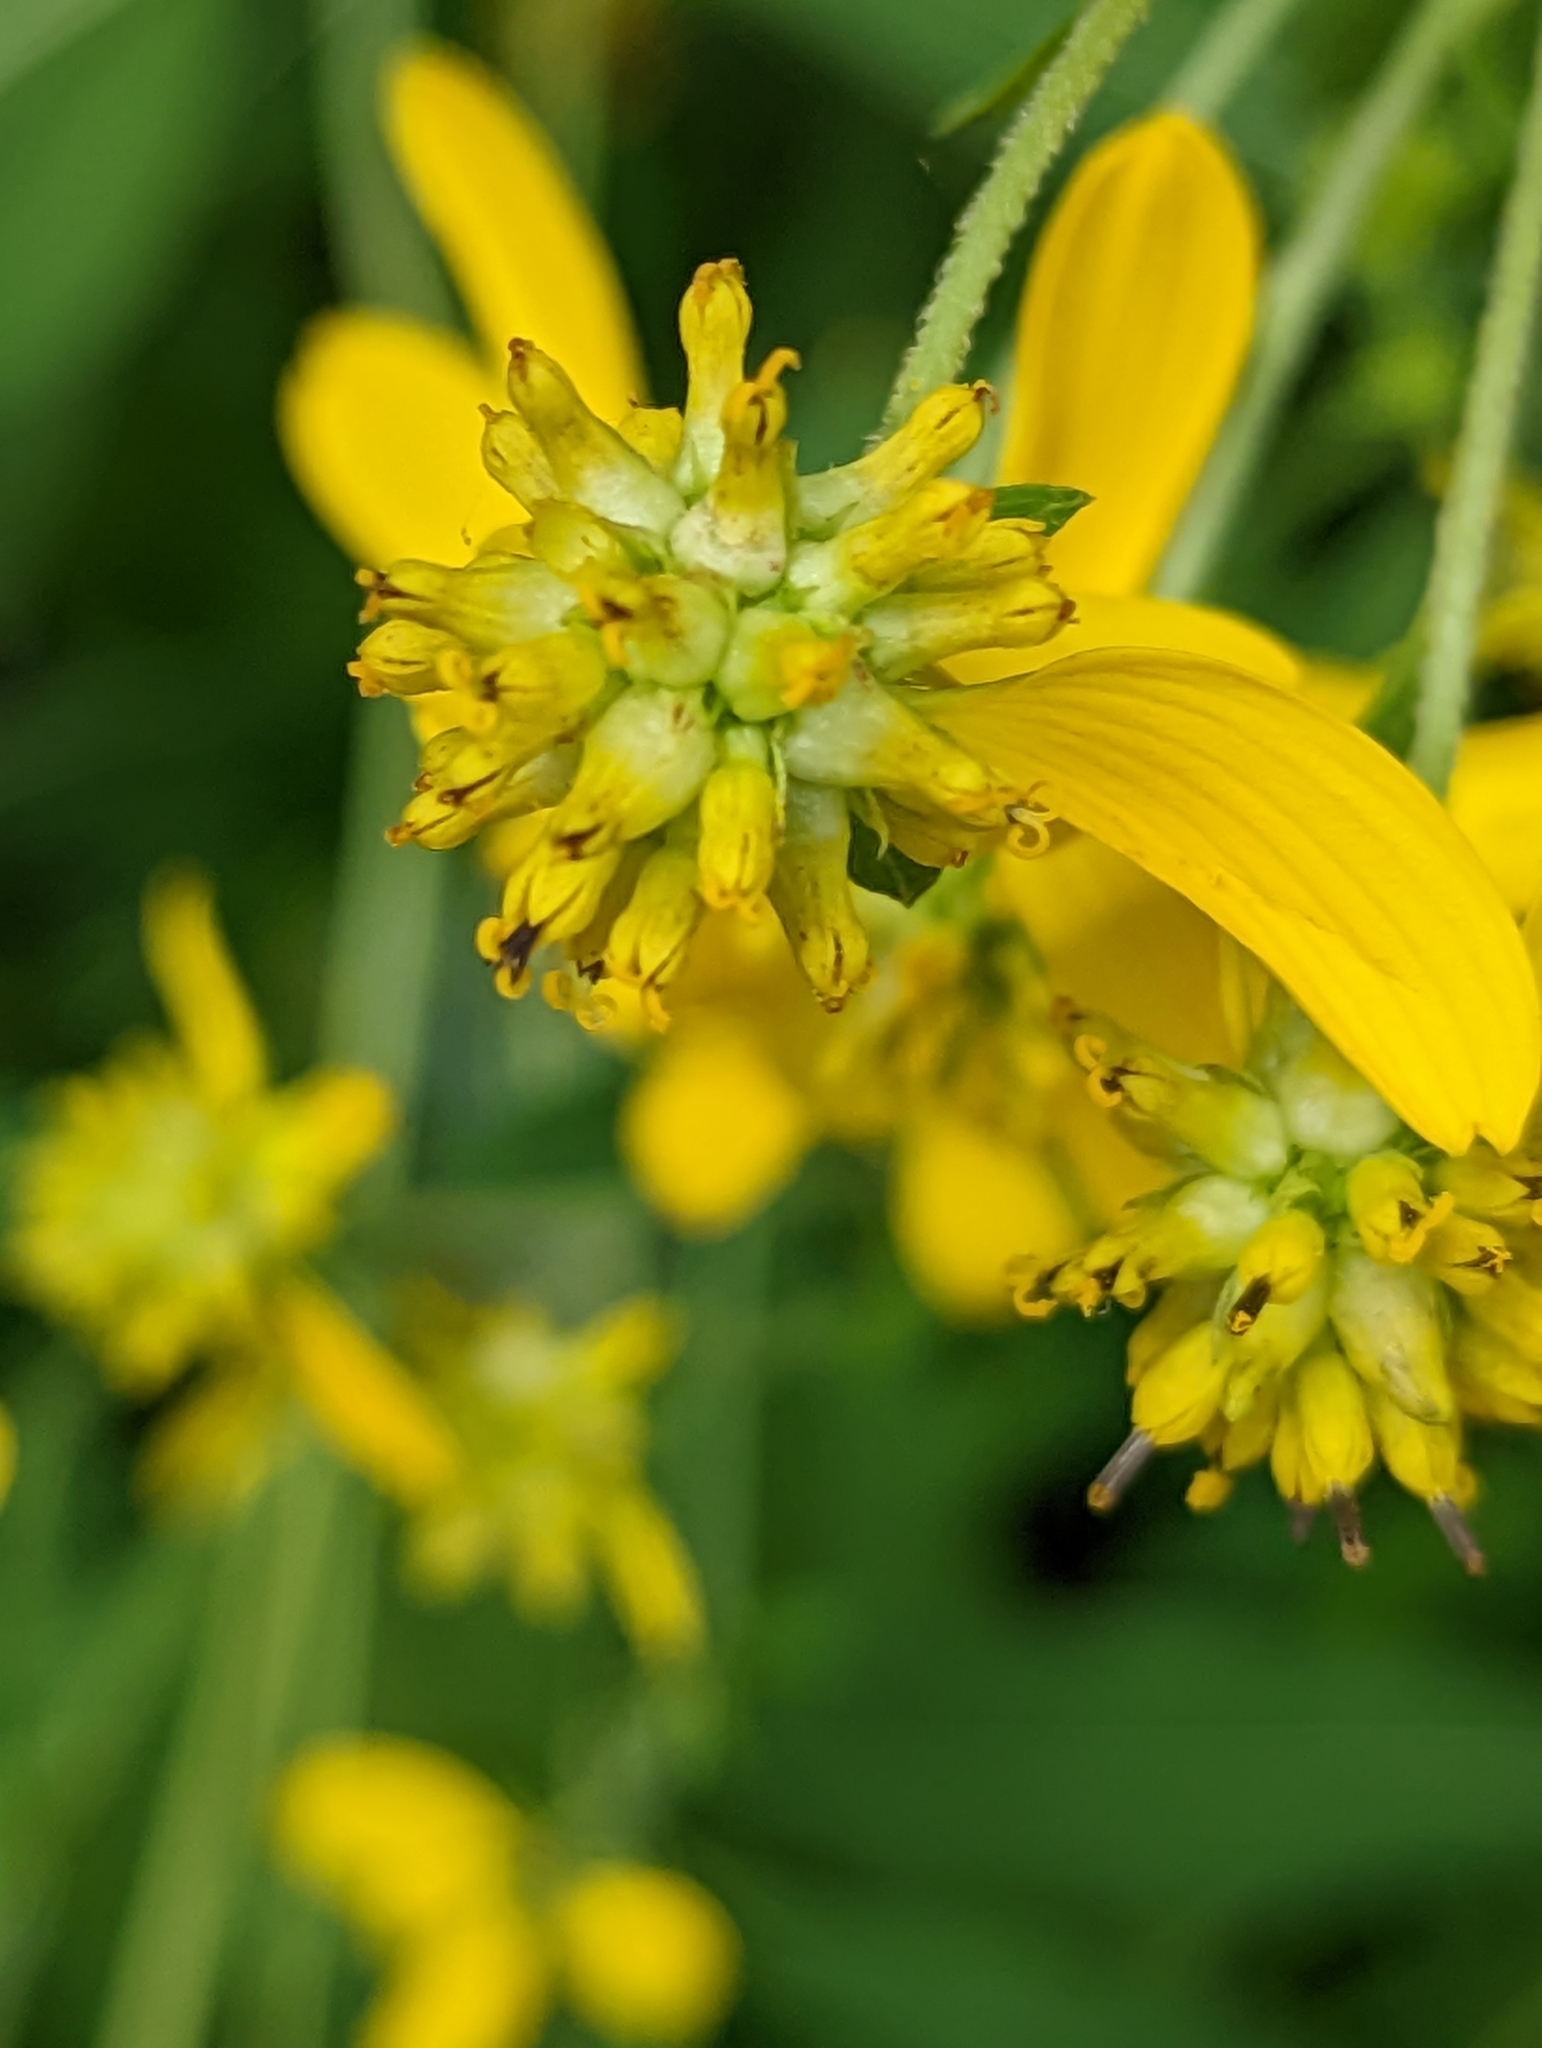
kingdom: Plantae
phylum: Tracheophyta
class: Magnoliopsida
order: Asterales
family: Asteraceae
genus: Verbesina
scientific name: Verbesina alternifolia
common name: Wingstem
